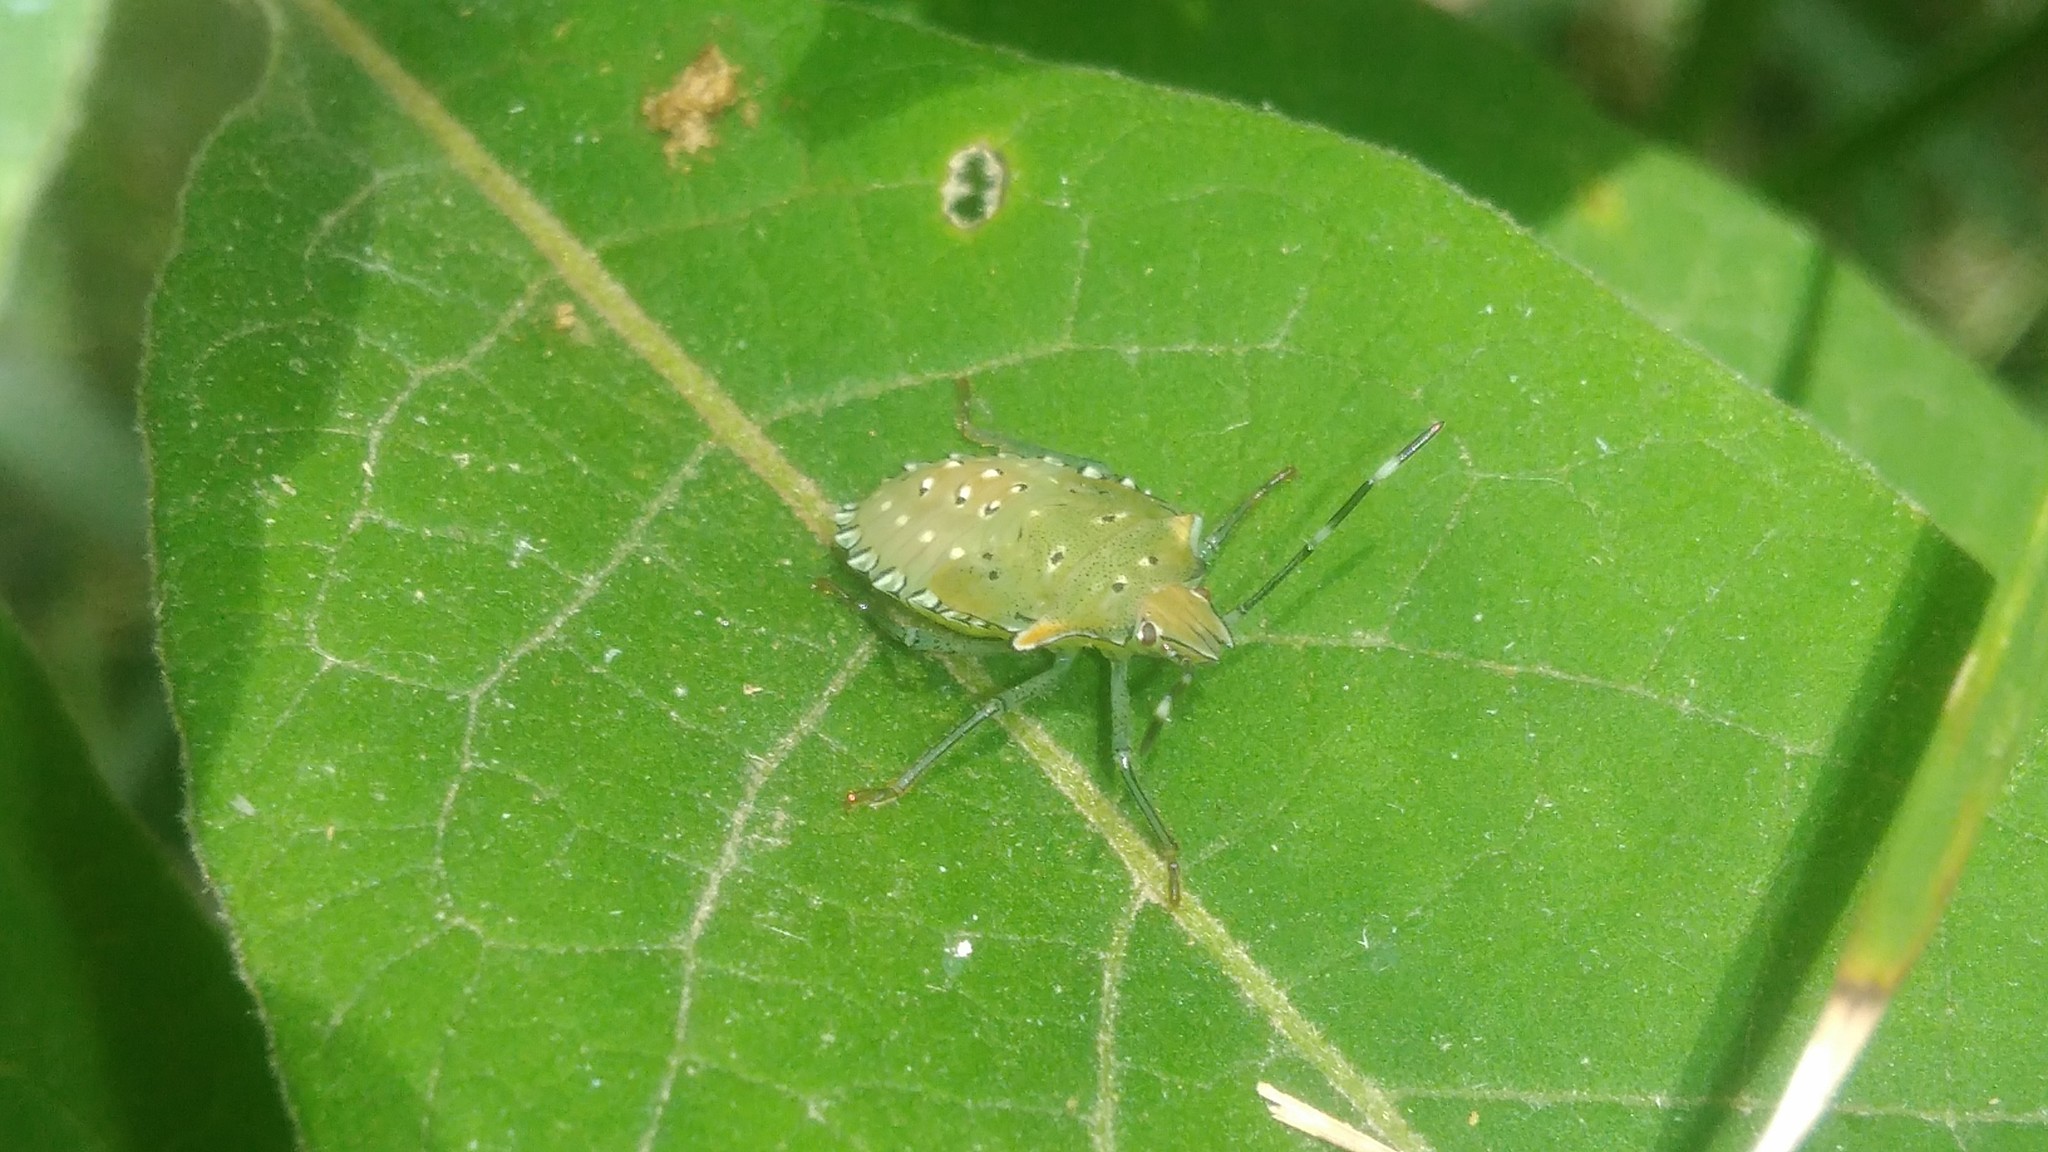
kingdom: Animalia
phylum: Arthropoda
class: Insecta
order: Hemiptera
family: Pentatomidae
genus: Arvelius
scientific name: Arvelius albopunctatus
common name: Tomato stink bug
